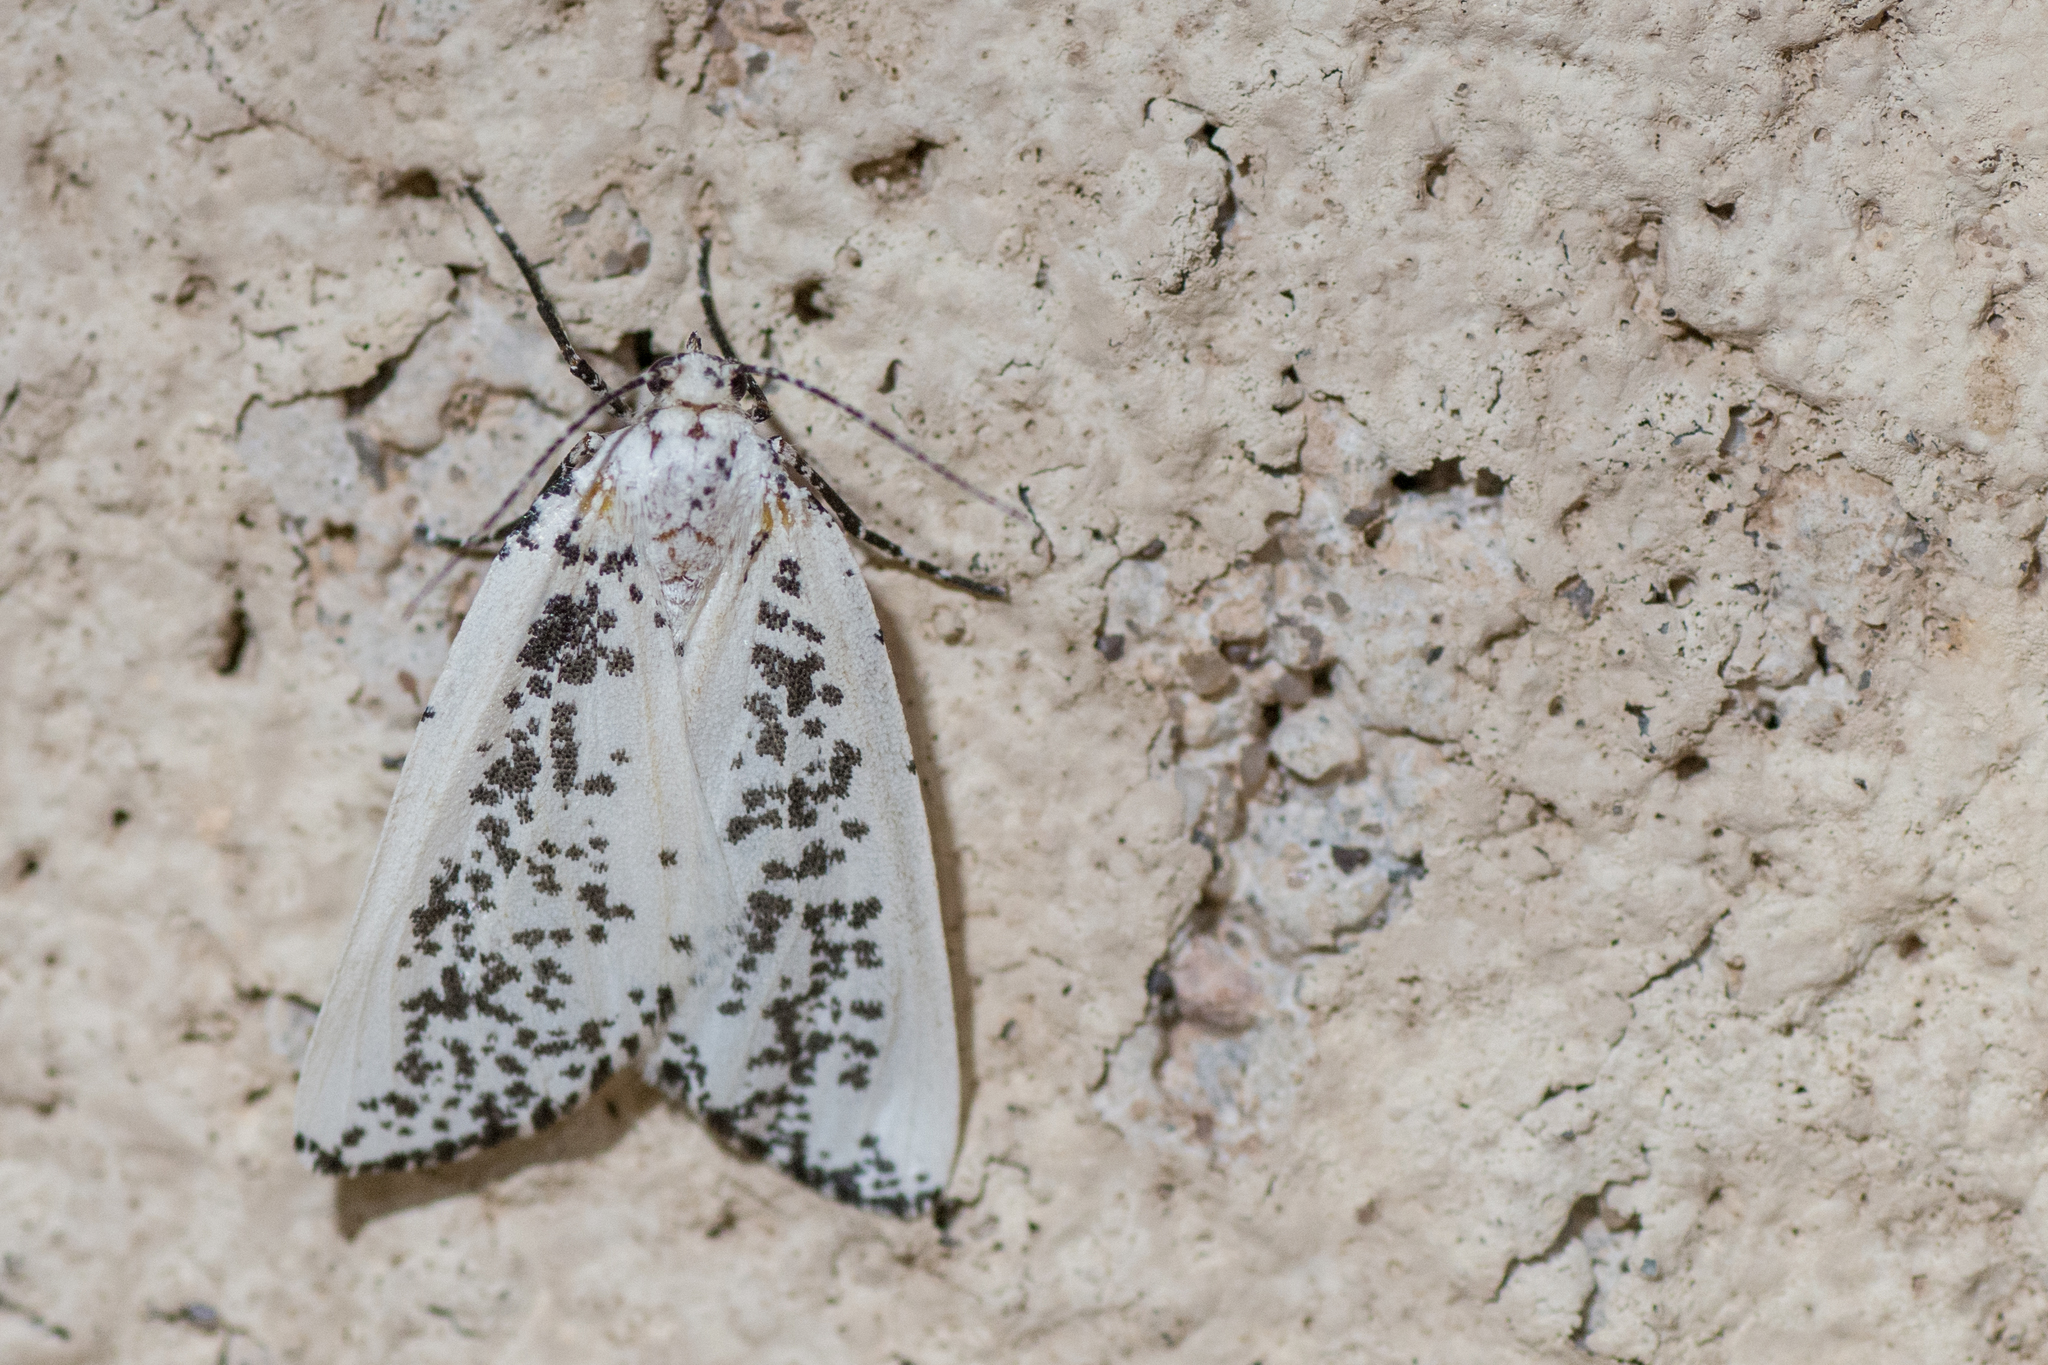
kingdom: Animalia
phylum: Arthropoda
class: Insecta
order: Lepidoptera
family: Geometridae
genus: Eucaterva
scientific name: Eucaterva variaria
